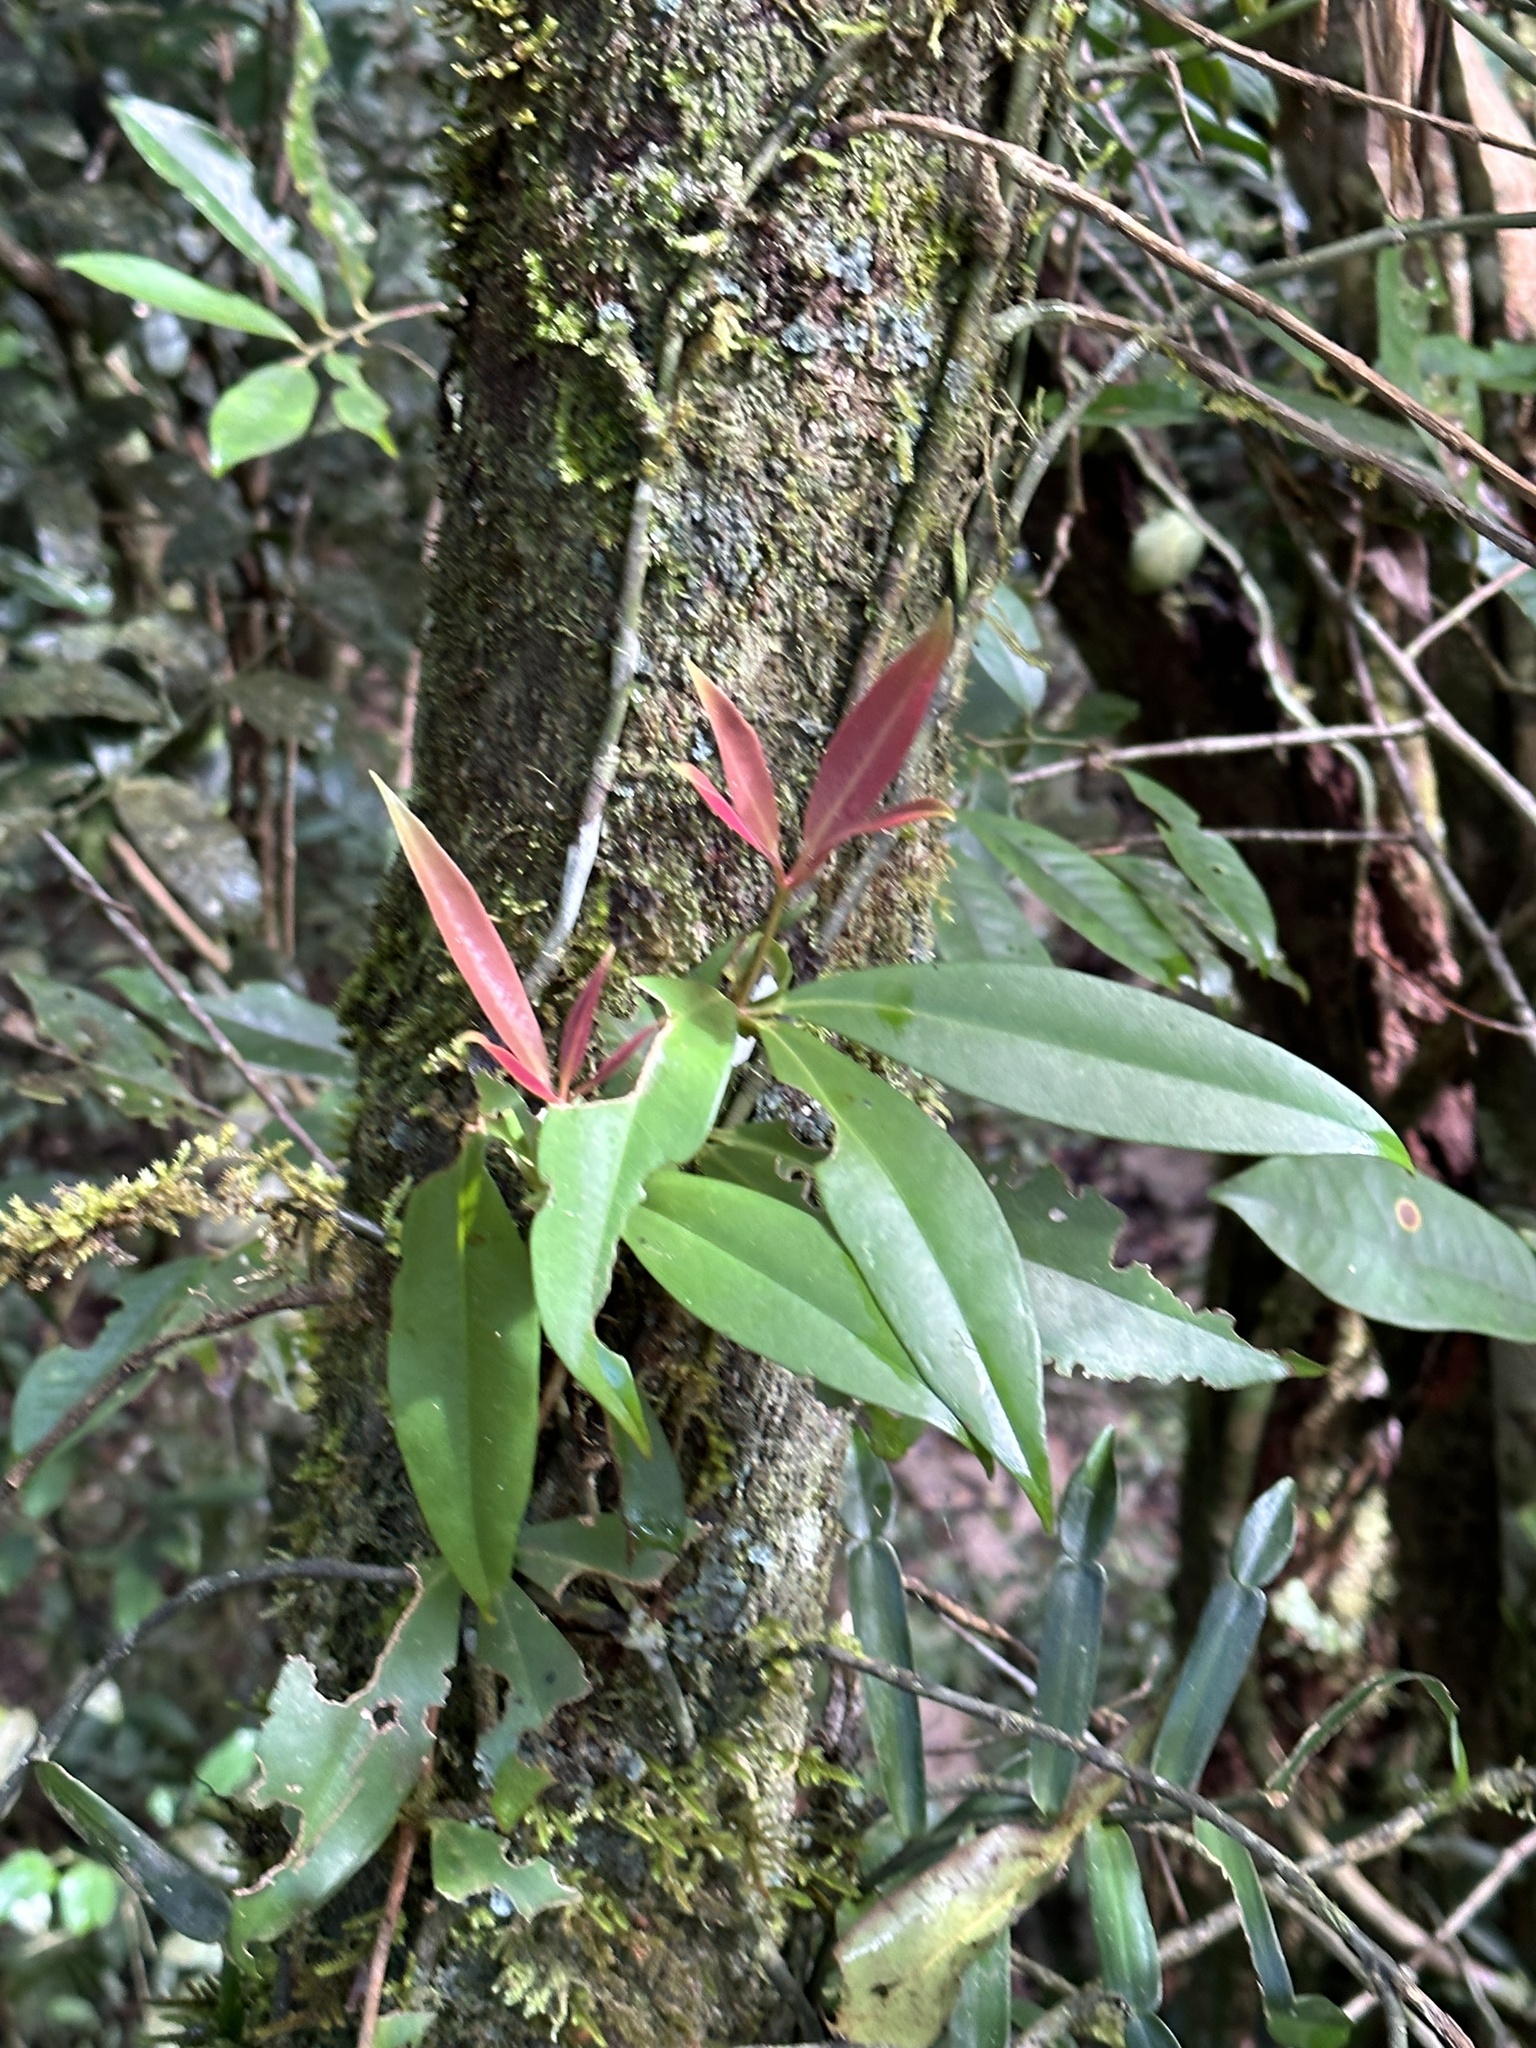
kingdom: Plantae
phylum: Tracheophyta
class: Magnoliopsida
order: Myrtales
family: Melastomataceae
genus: Medinilla
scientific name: Medinilla balls-headleyi
